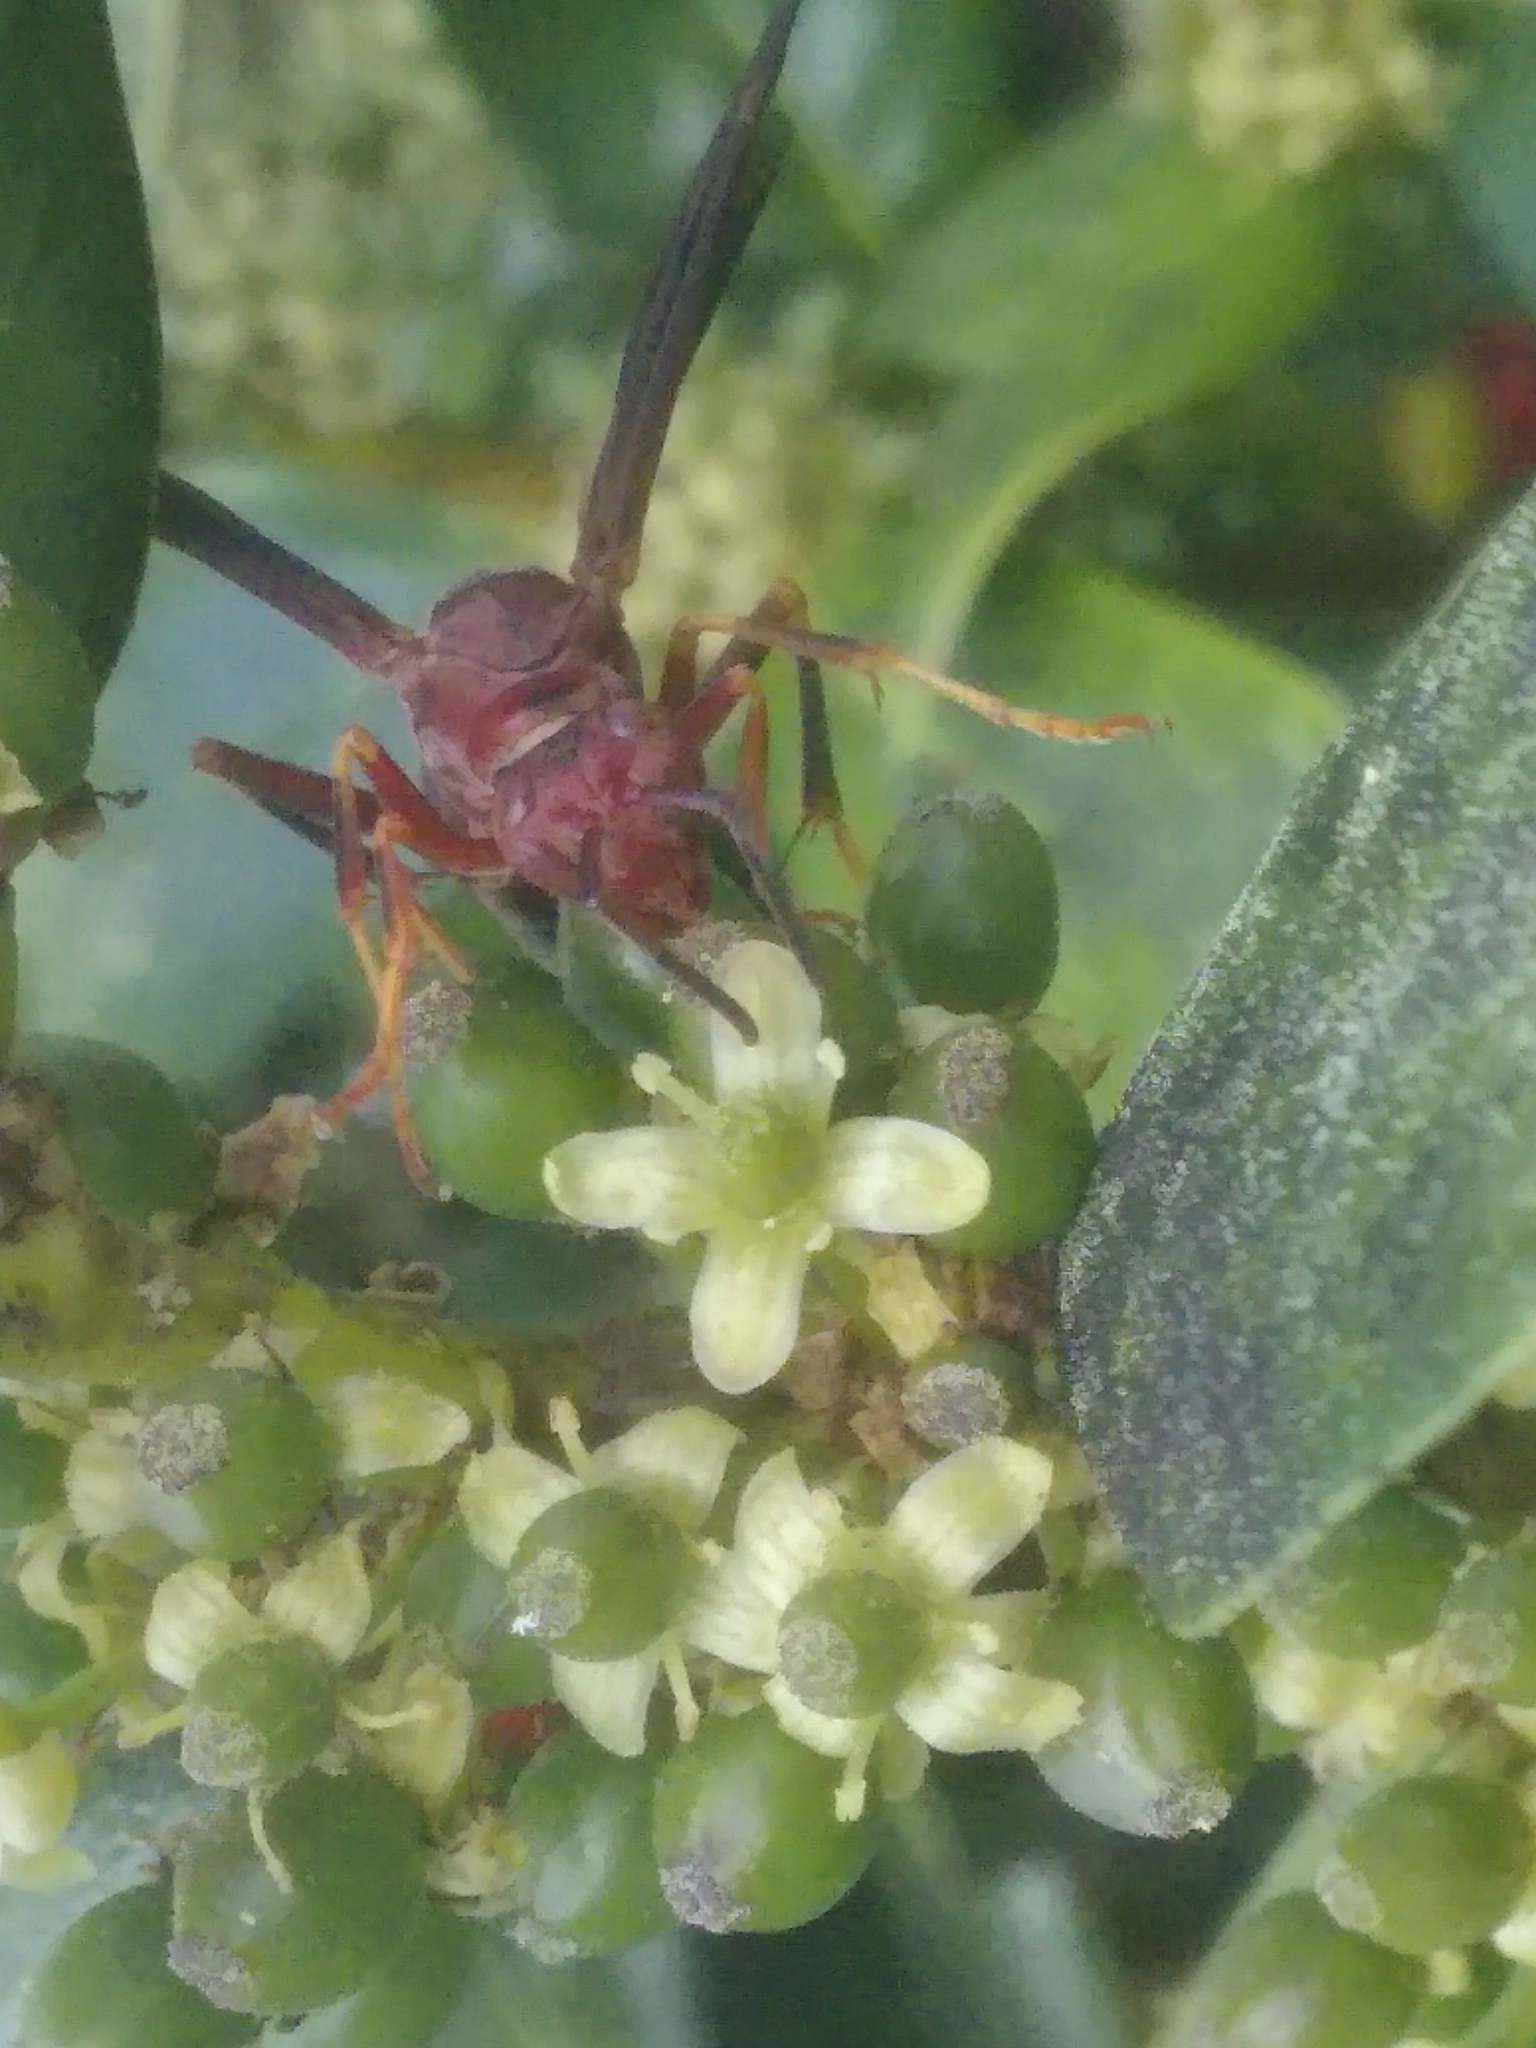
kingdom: Animalia
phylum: Arthropoda
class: Insecta
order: Hymenoptera
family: Eumenidae
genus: Polistes
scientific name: Polistes metricus
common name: Metric paper wasp
